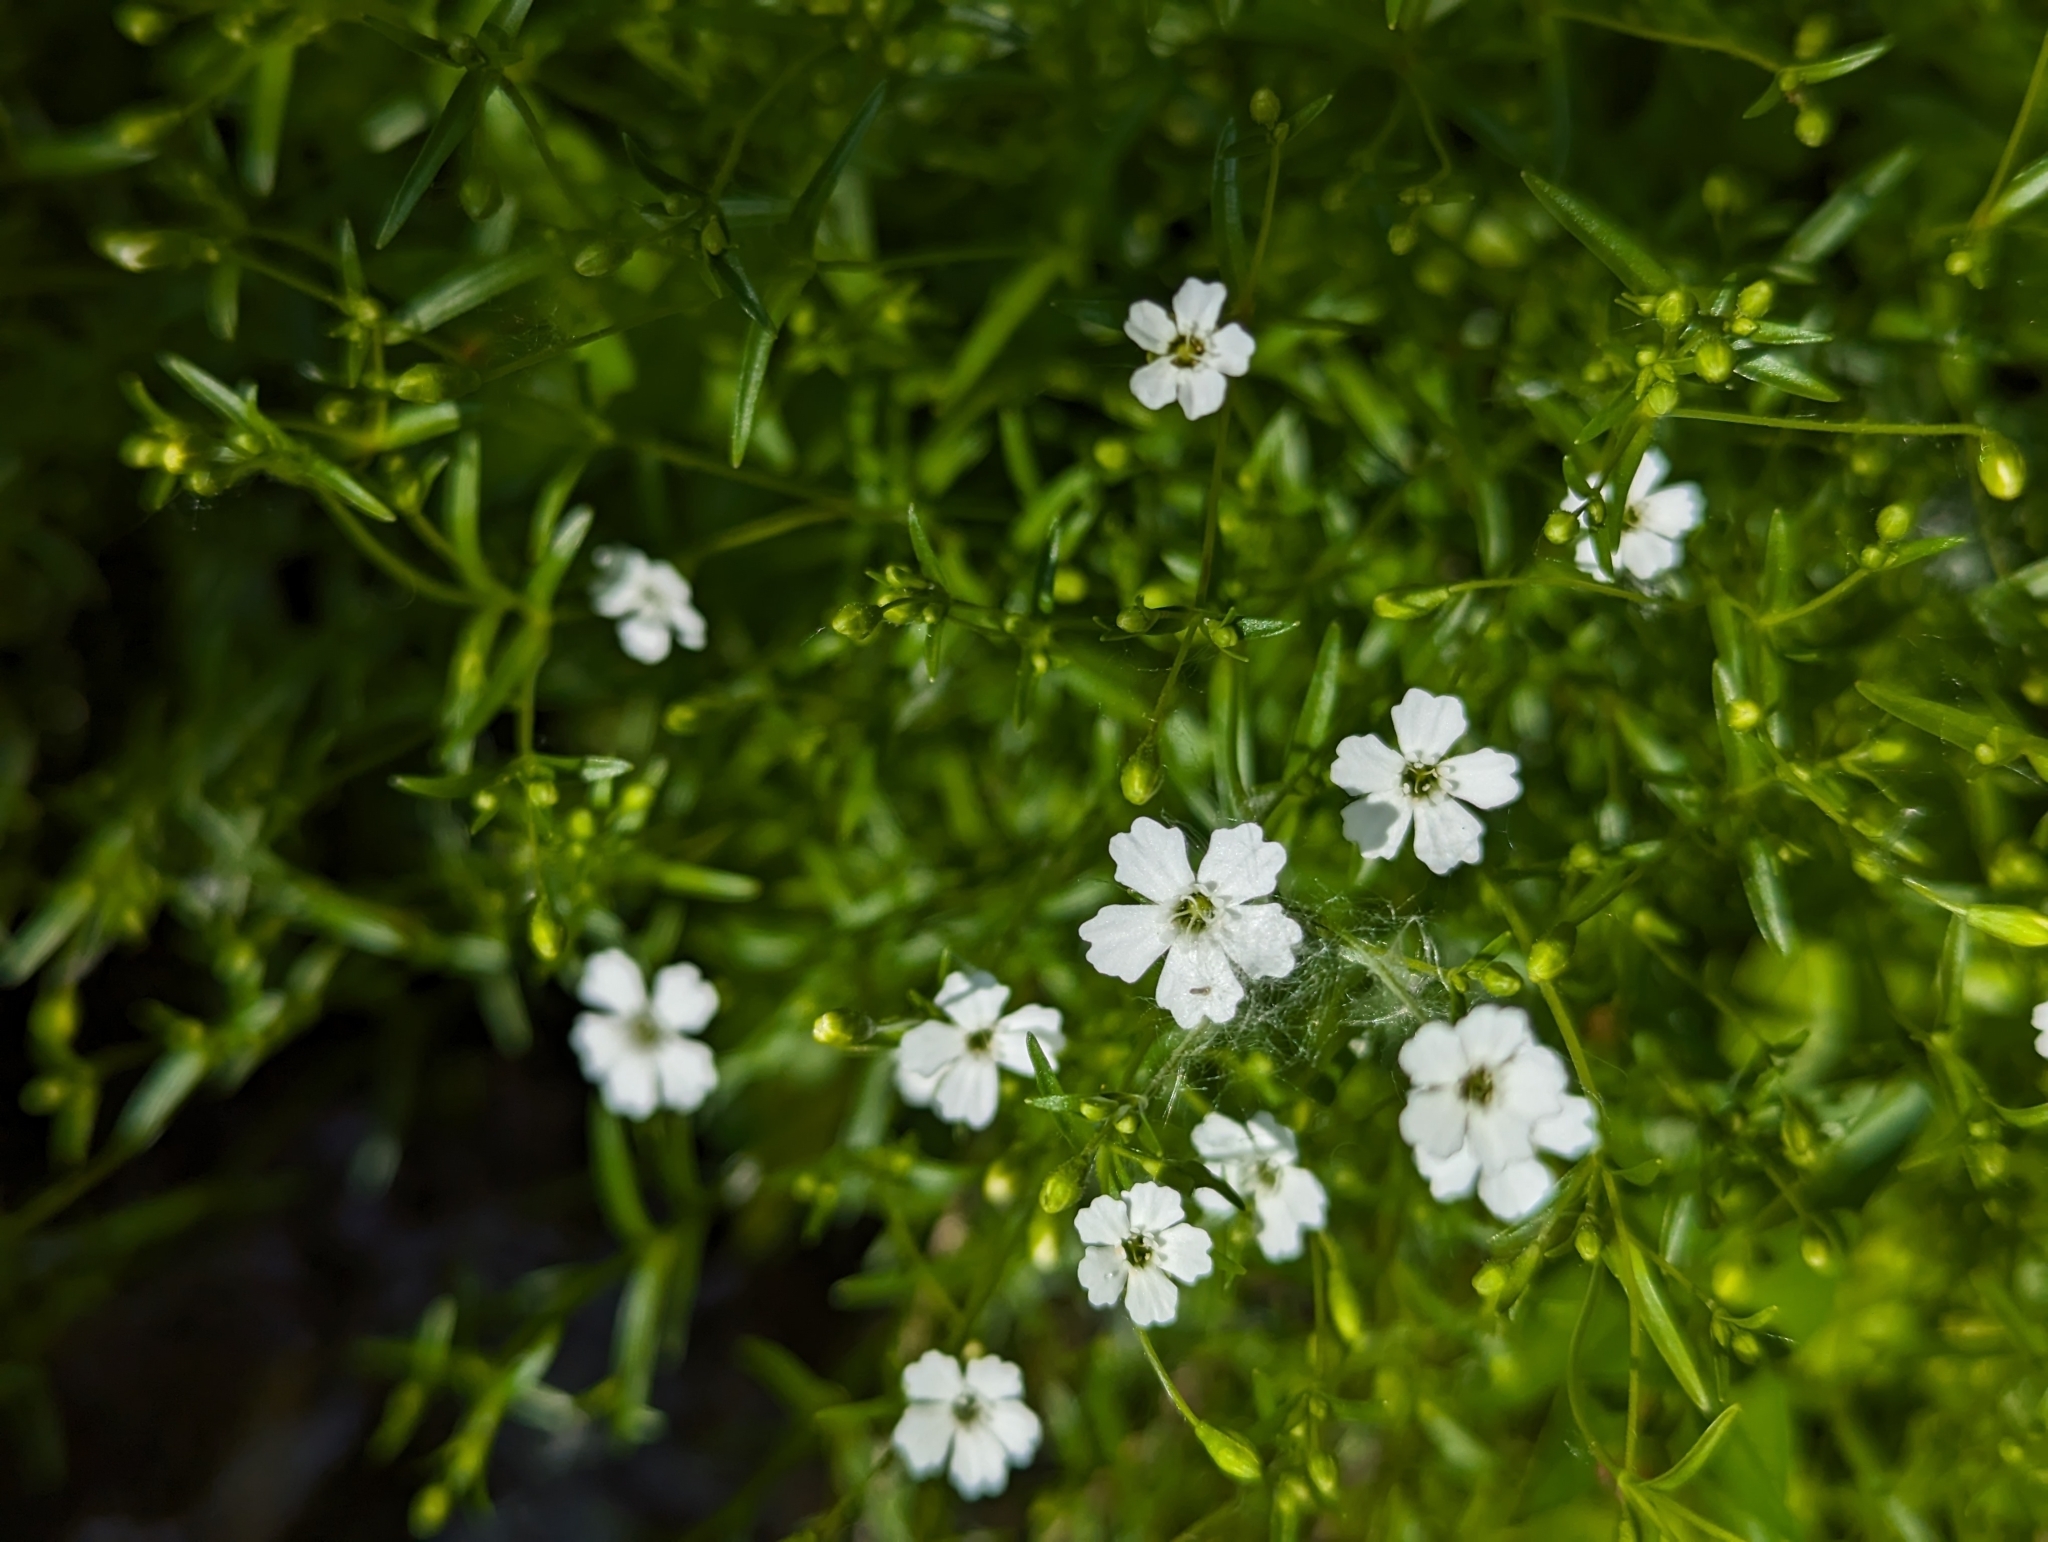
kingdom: Plantae
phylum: Tracheophyta
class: Magnoliopsida
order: Caryophyllales
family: Caryophyllaceae
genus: Heliosperma
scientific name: Heliosperma pusillum
